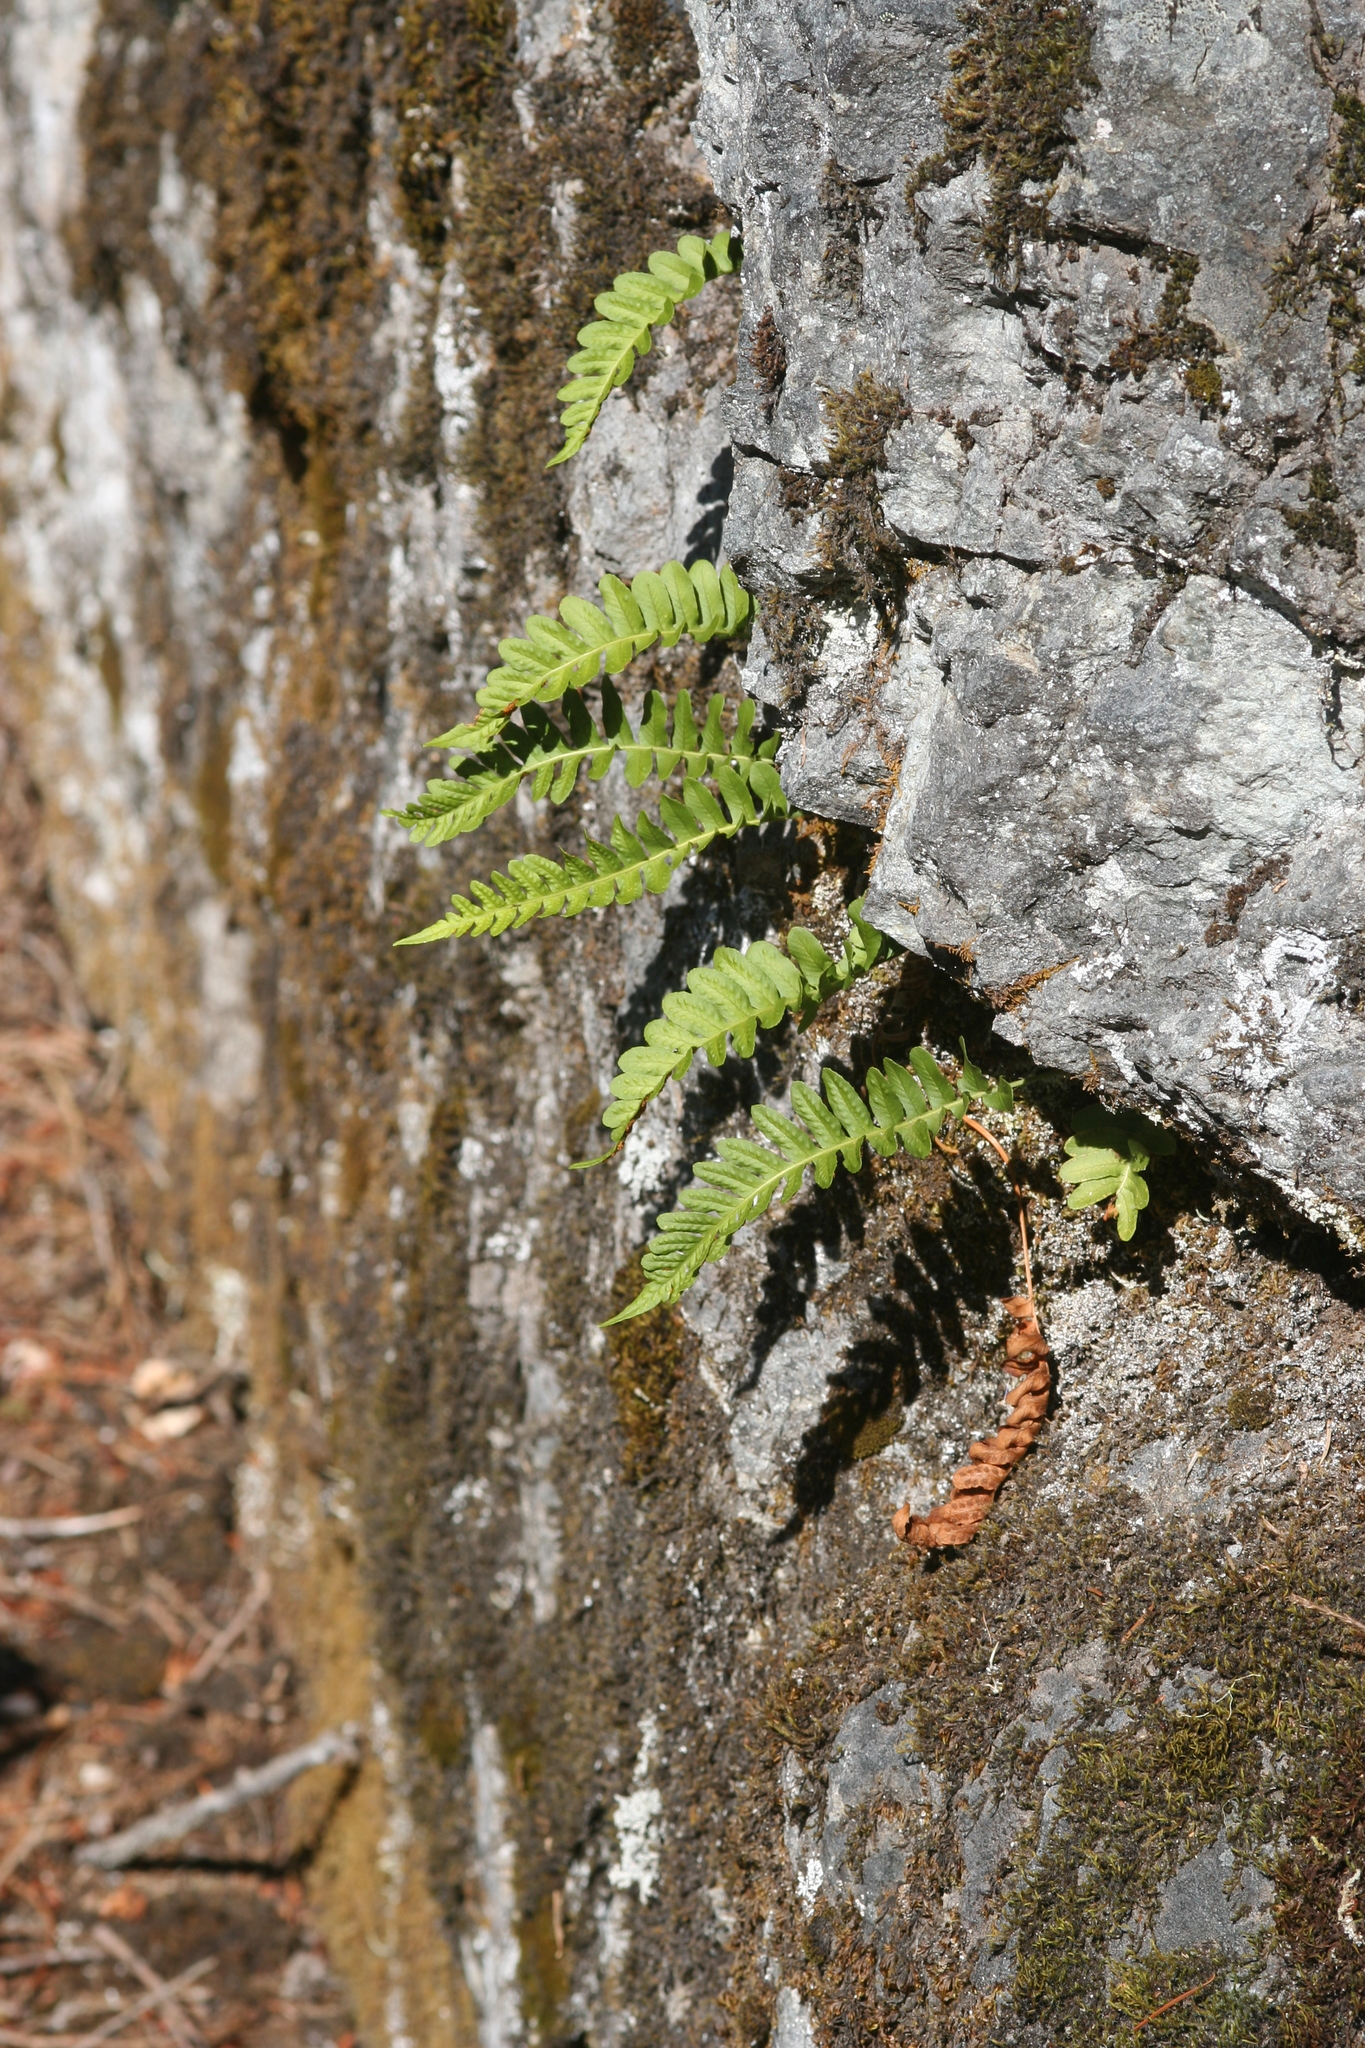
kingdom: Plantae
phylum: Tracheophyta
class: Polypodiopsida
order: Polypodiales
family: Polypodiaceae
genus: Polypodium
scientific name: Polypodium hesperium
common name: Western polypody
